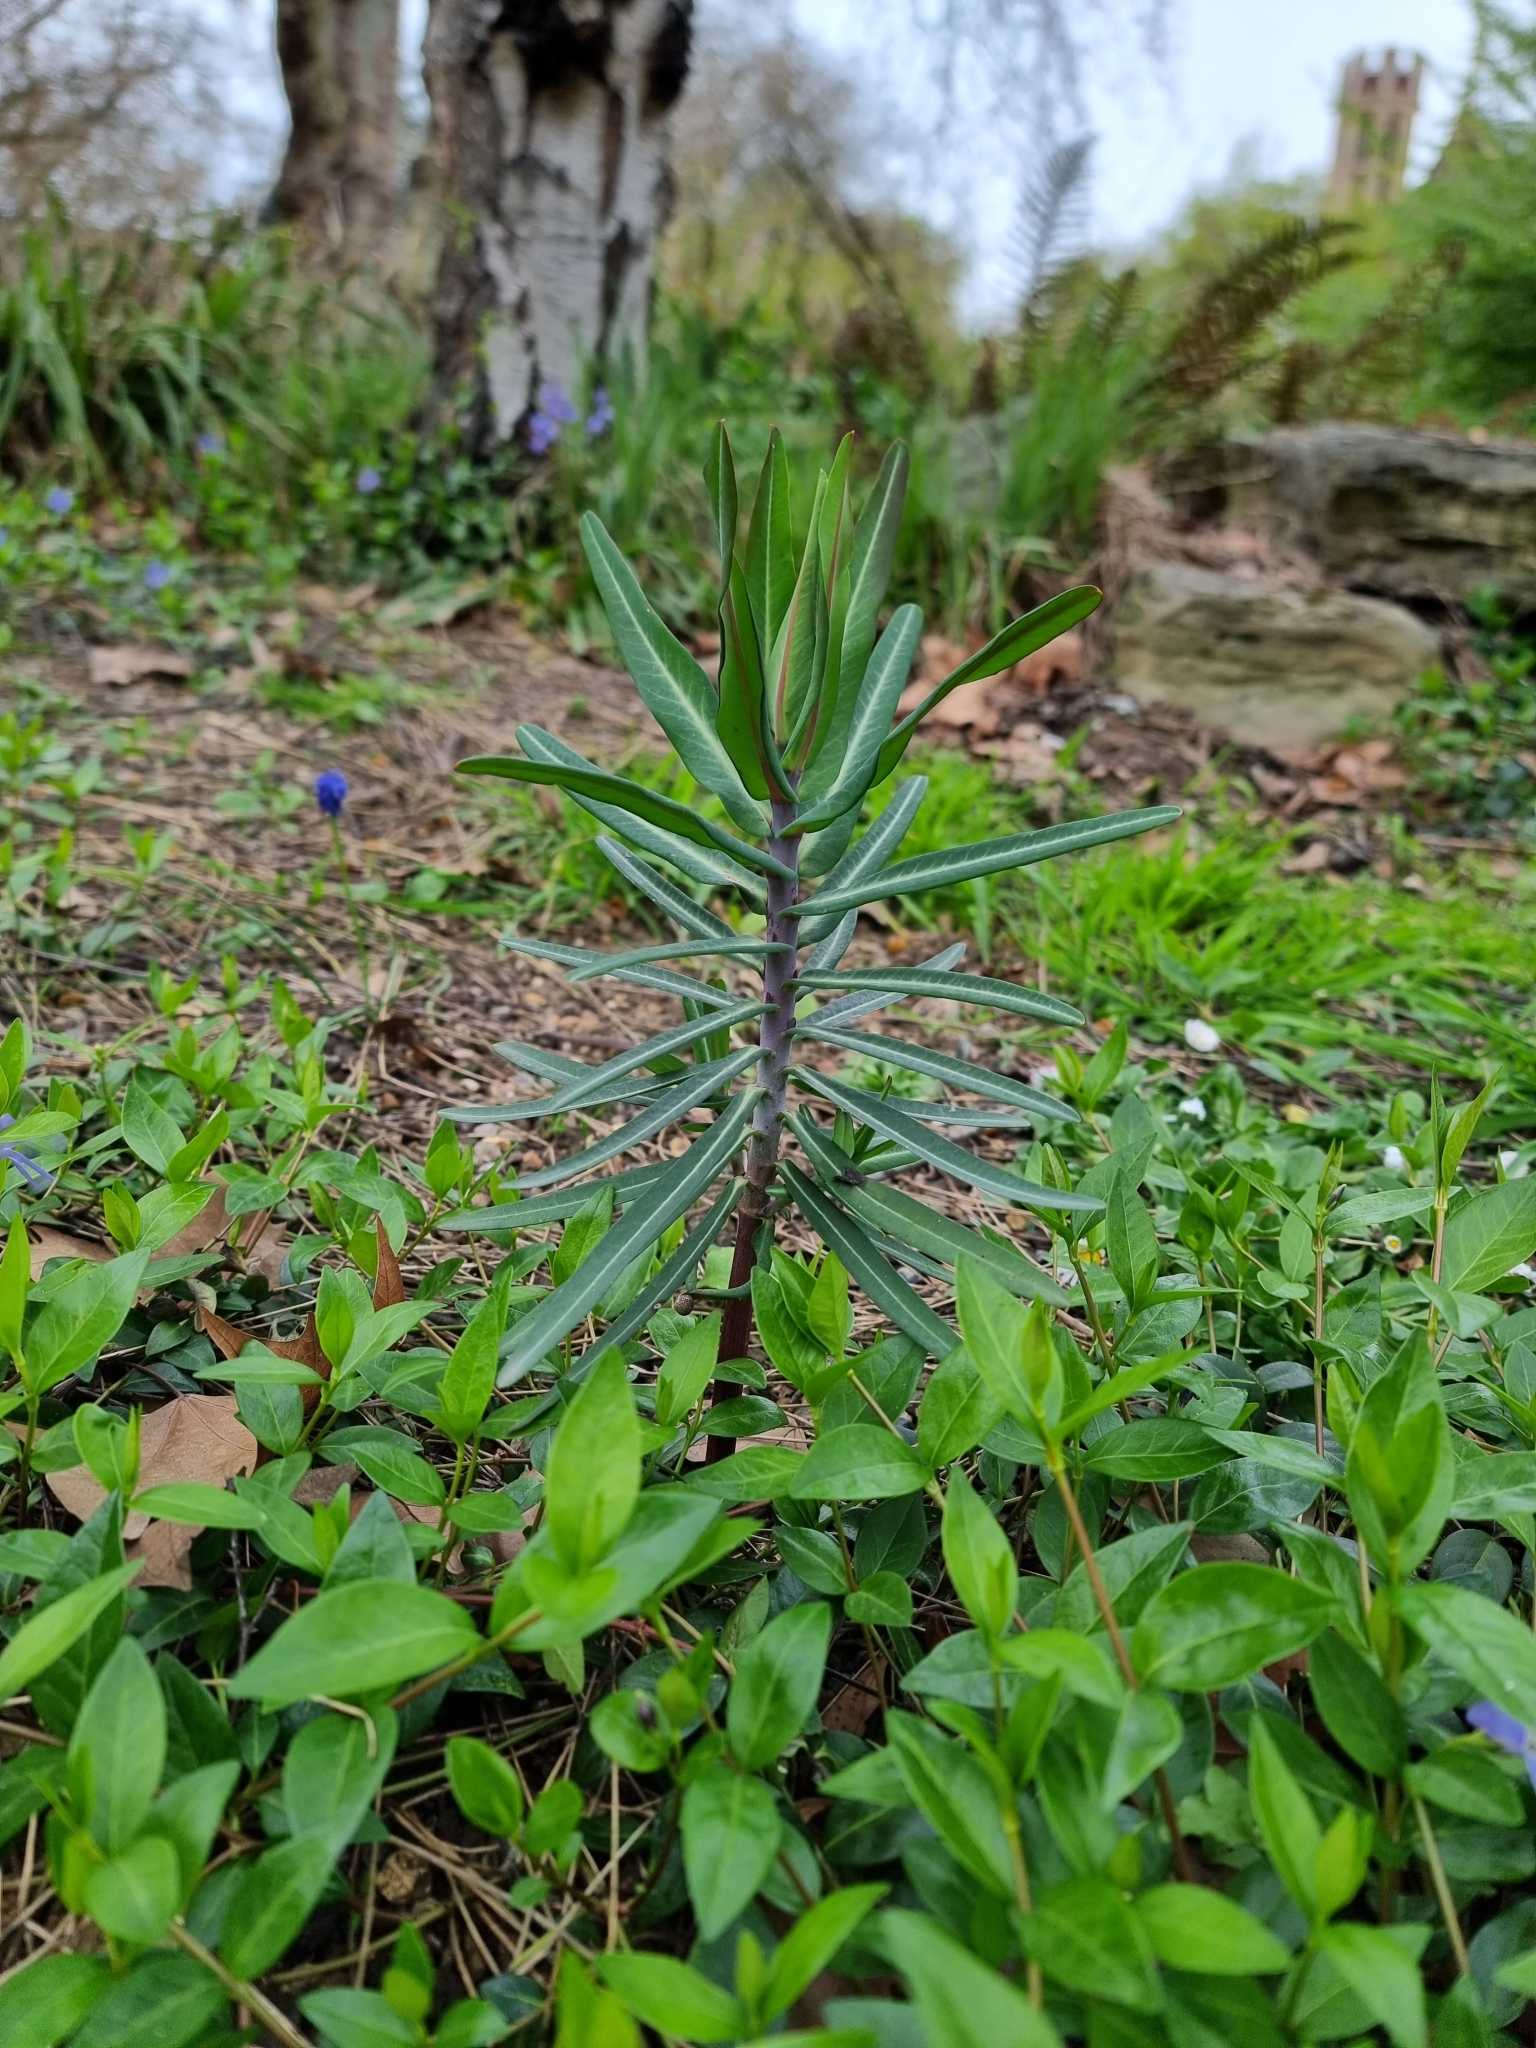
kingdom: Plantae
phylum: Tracheophyta
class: Magnoliopsida
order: Malpighiales
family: Euphorbiaceae
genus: Euphorbia
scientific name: Euphorbia lathyris
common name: Caper spurge
